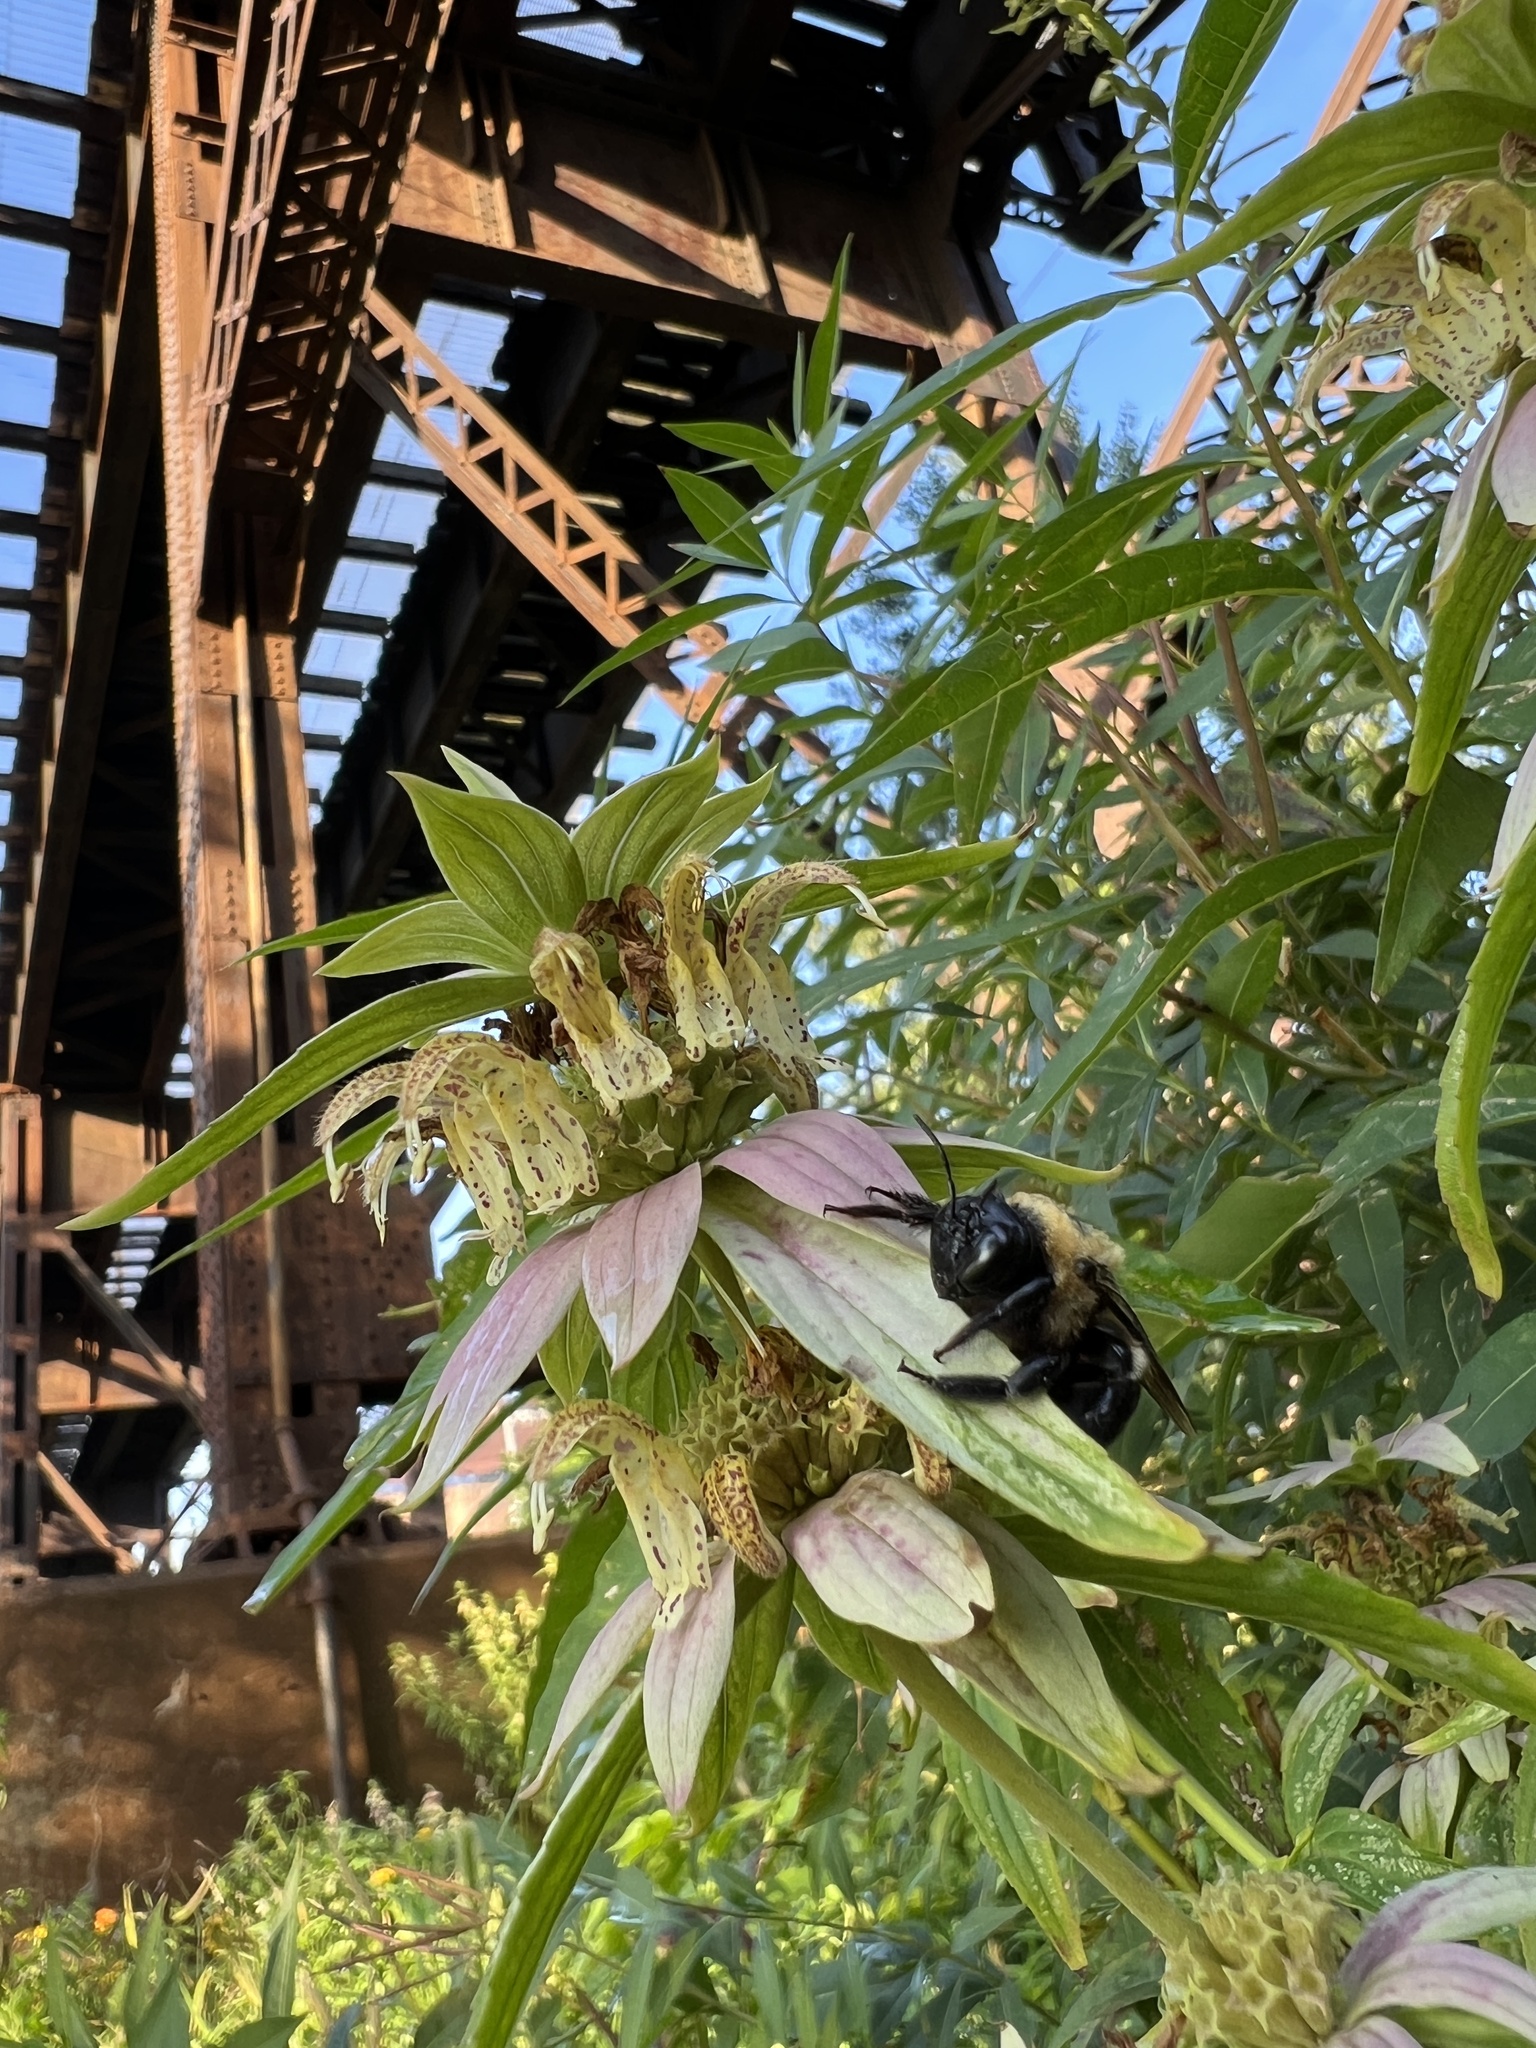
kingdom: Animalia
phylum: Arthropoda
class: Insecta
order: Hymenoptera
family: Apidae
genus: Xylocopa
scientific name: Xylocopa virginica
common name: Carpenter bee
